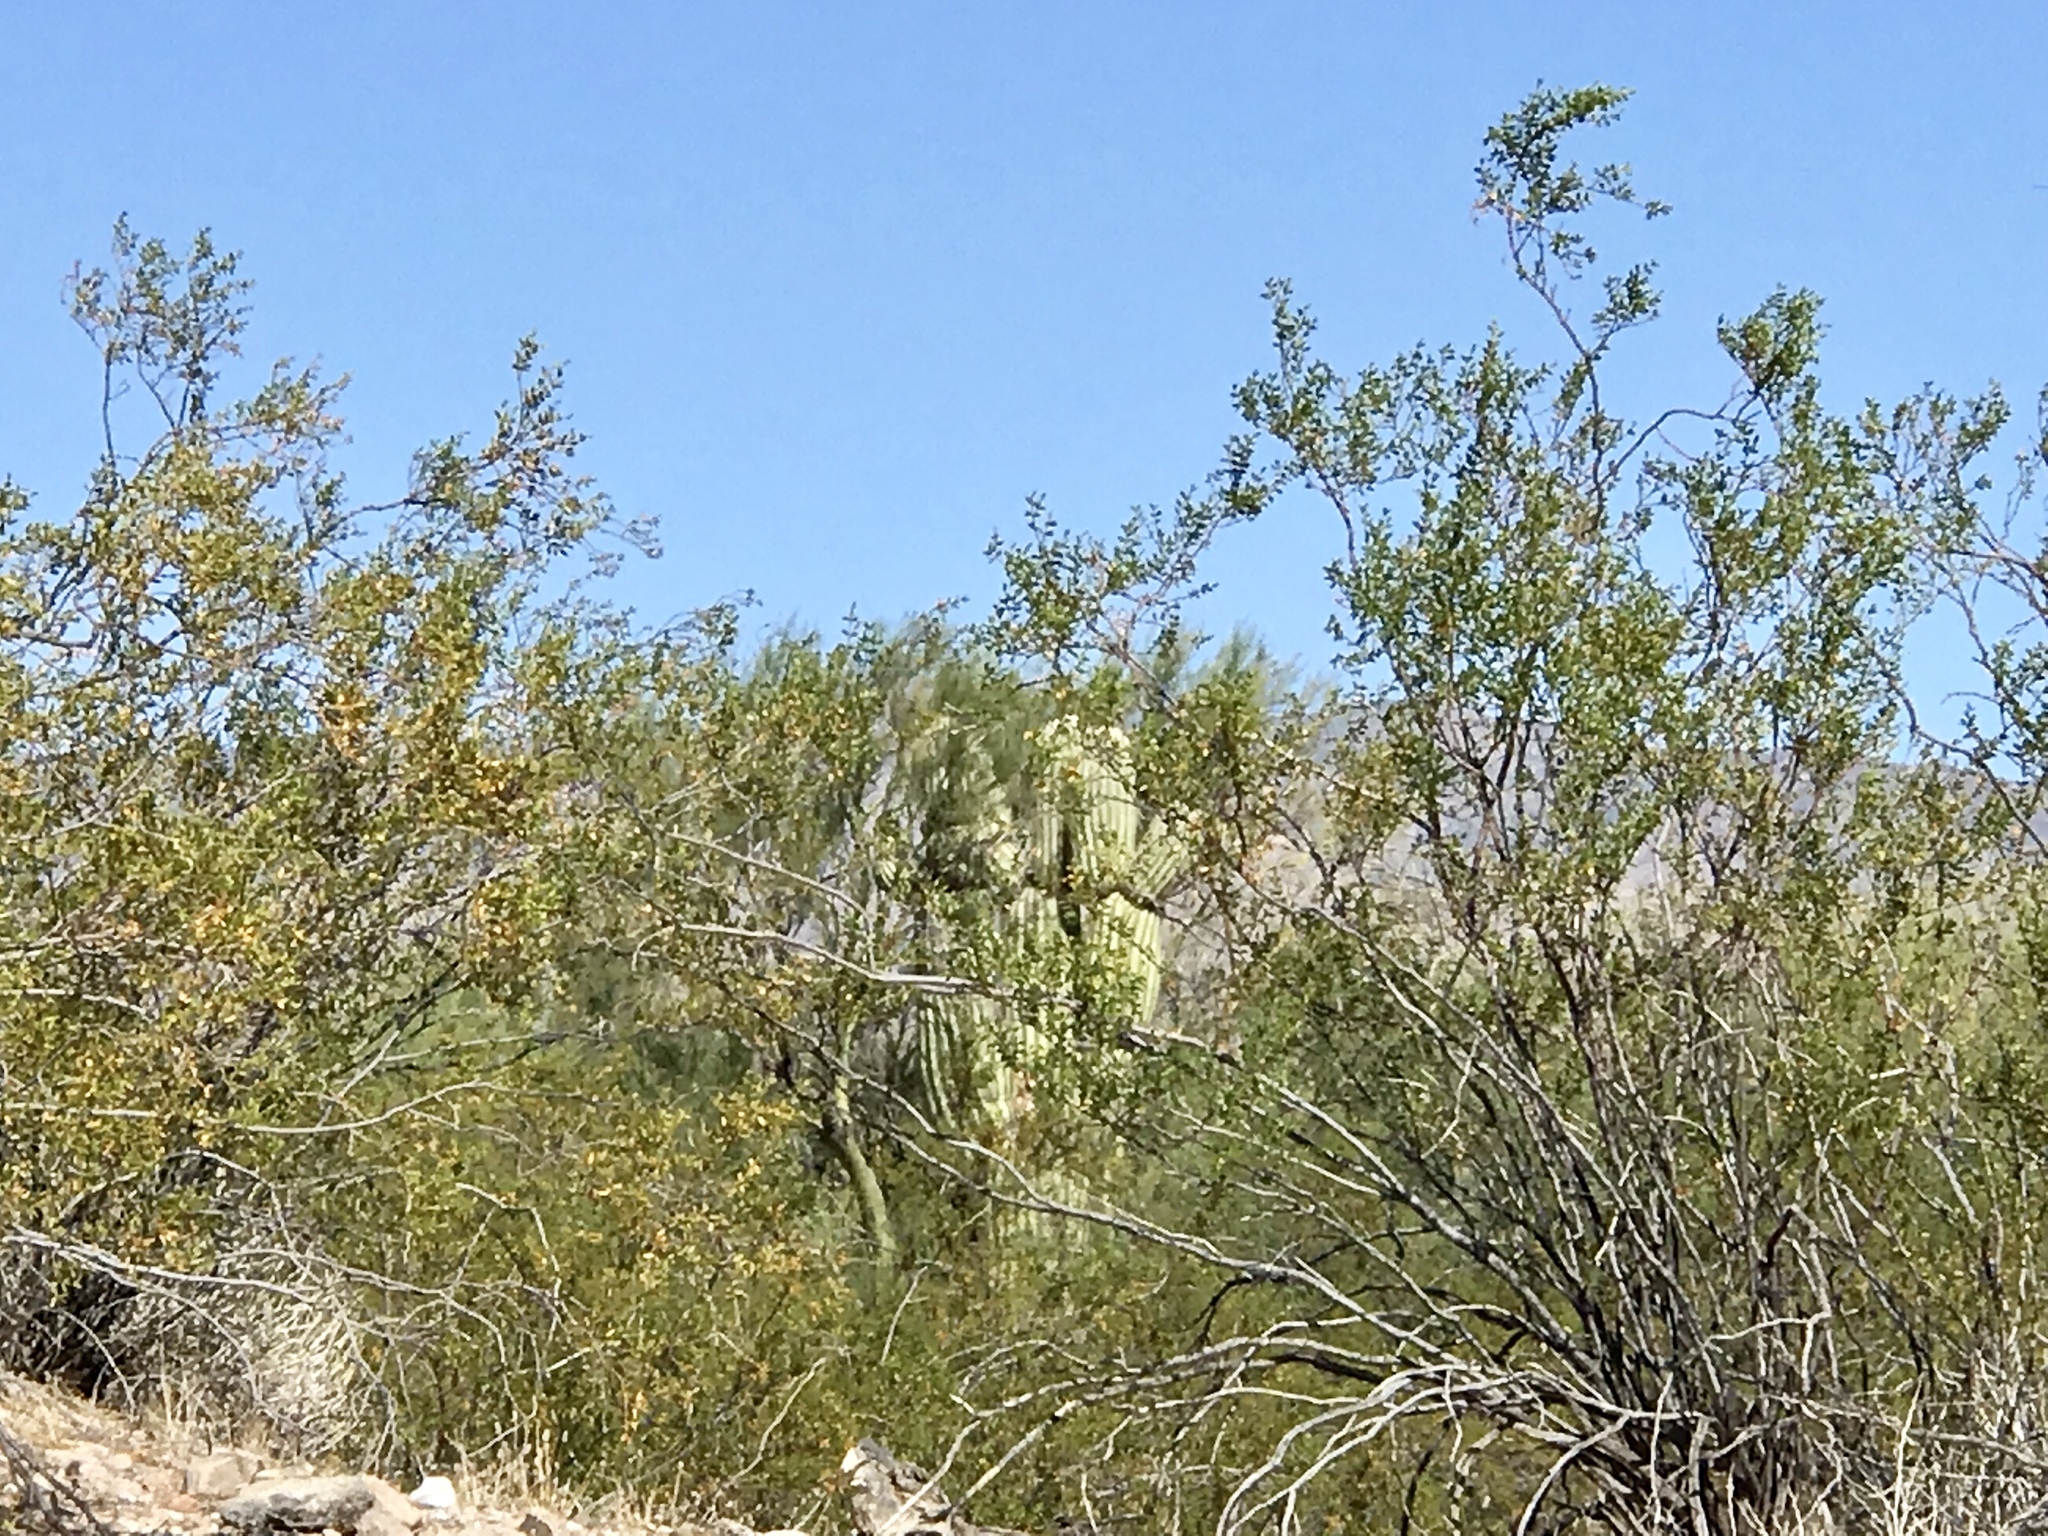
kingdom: Plantae
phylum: Tracheophyta
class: Magnoliopsida
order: Zygophyllales
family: Zygophyllaceae
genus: Larrea
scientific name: Larrea tridentata
